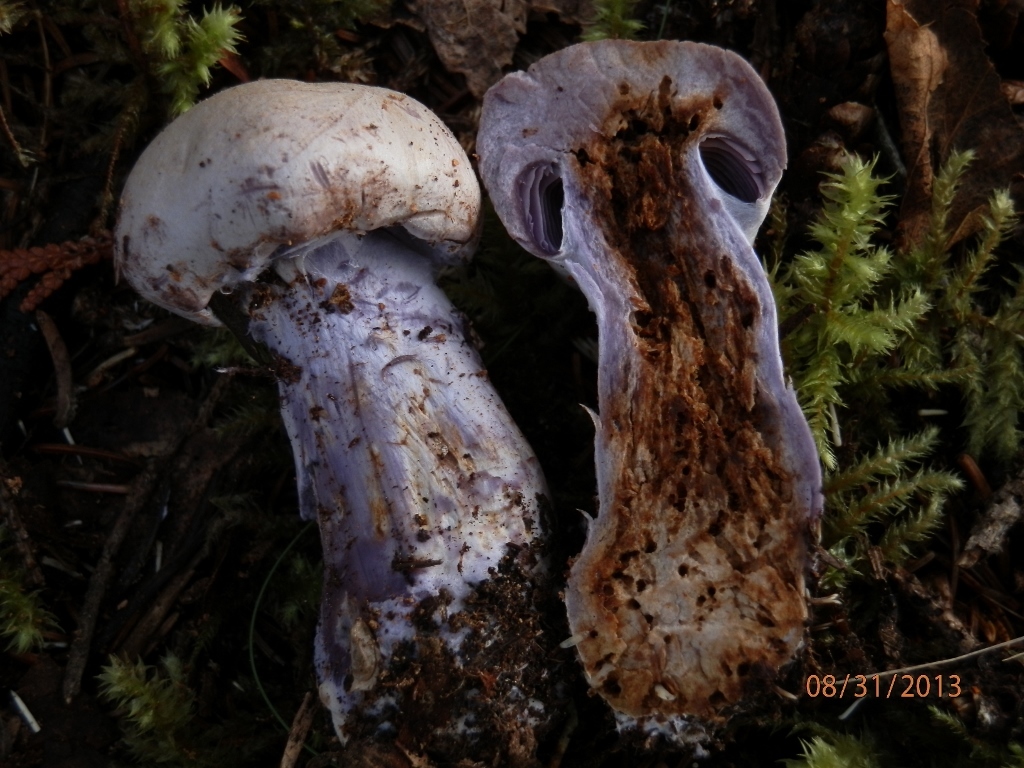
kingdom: Fungi
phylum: Basidiomycota
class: Agaricomycetes
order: Agaricales
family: Cortinariaceae
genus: Cortinarius
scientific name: Cortinarius alboviolaceus
